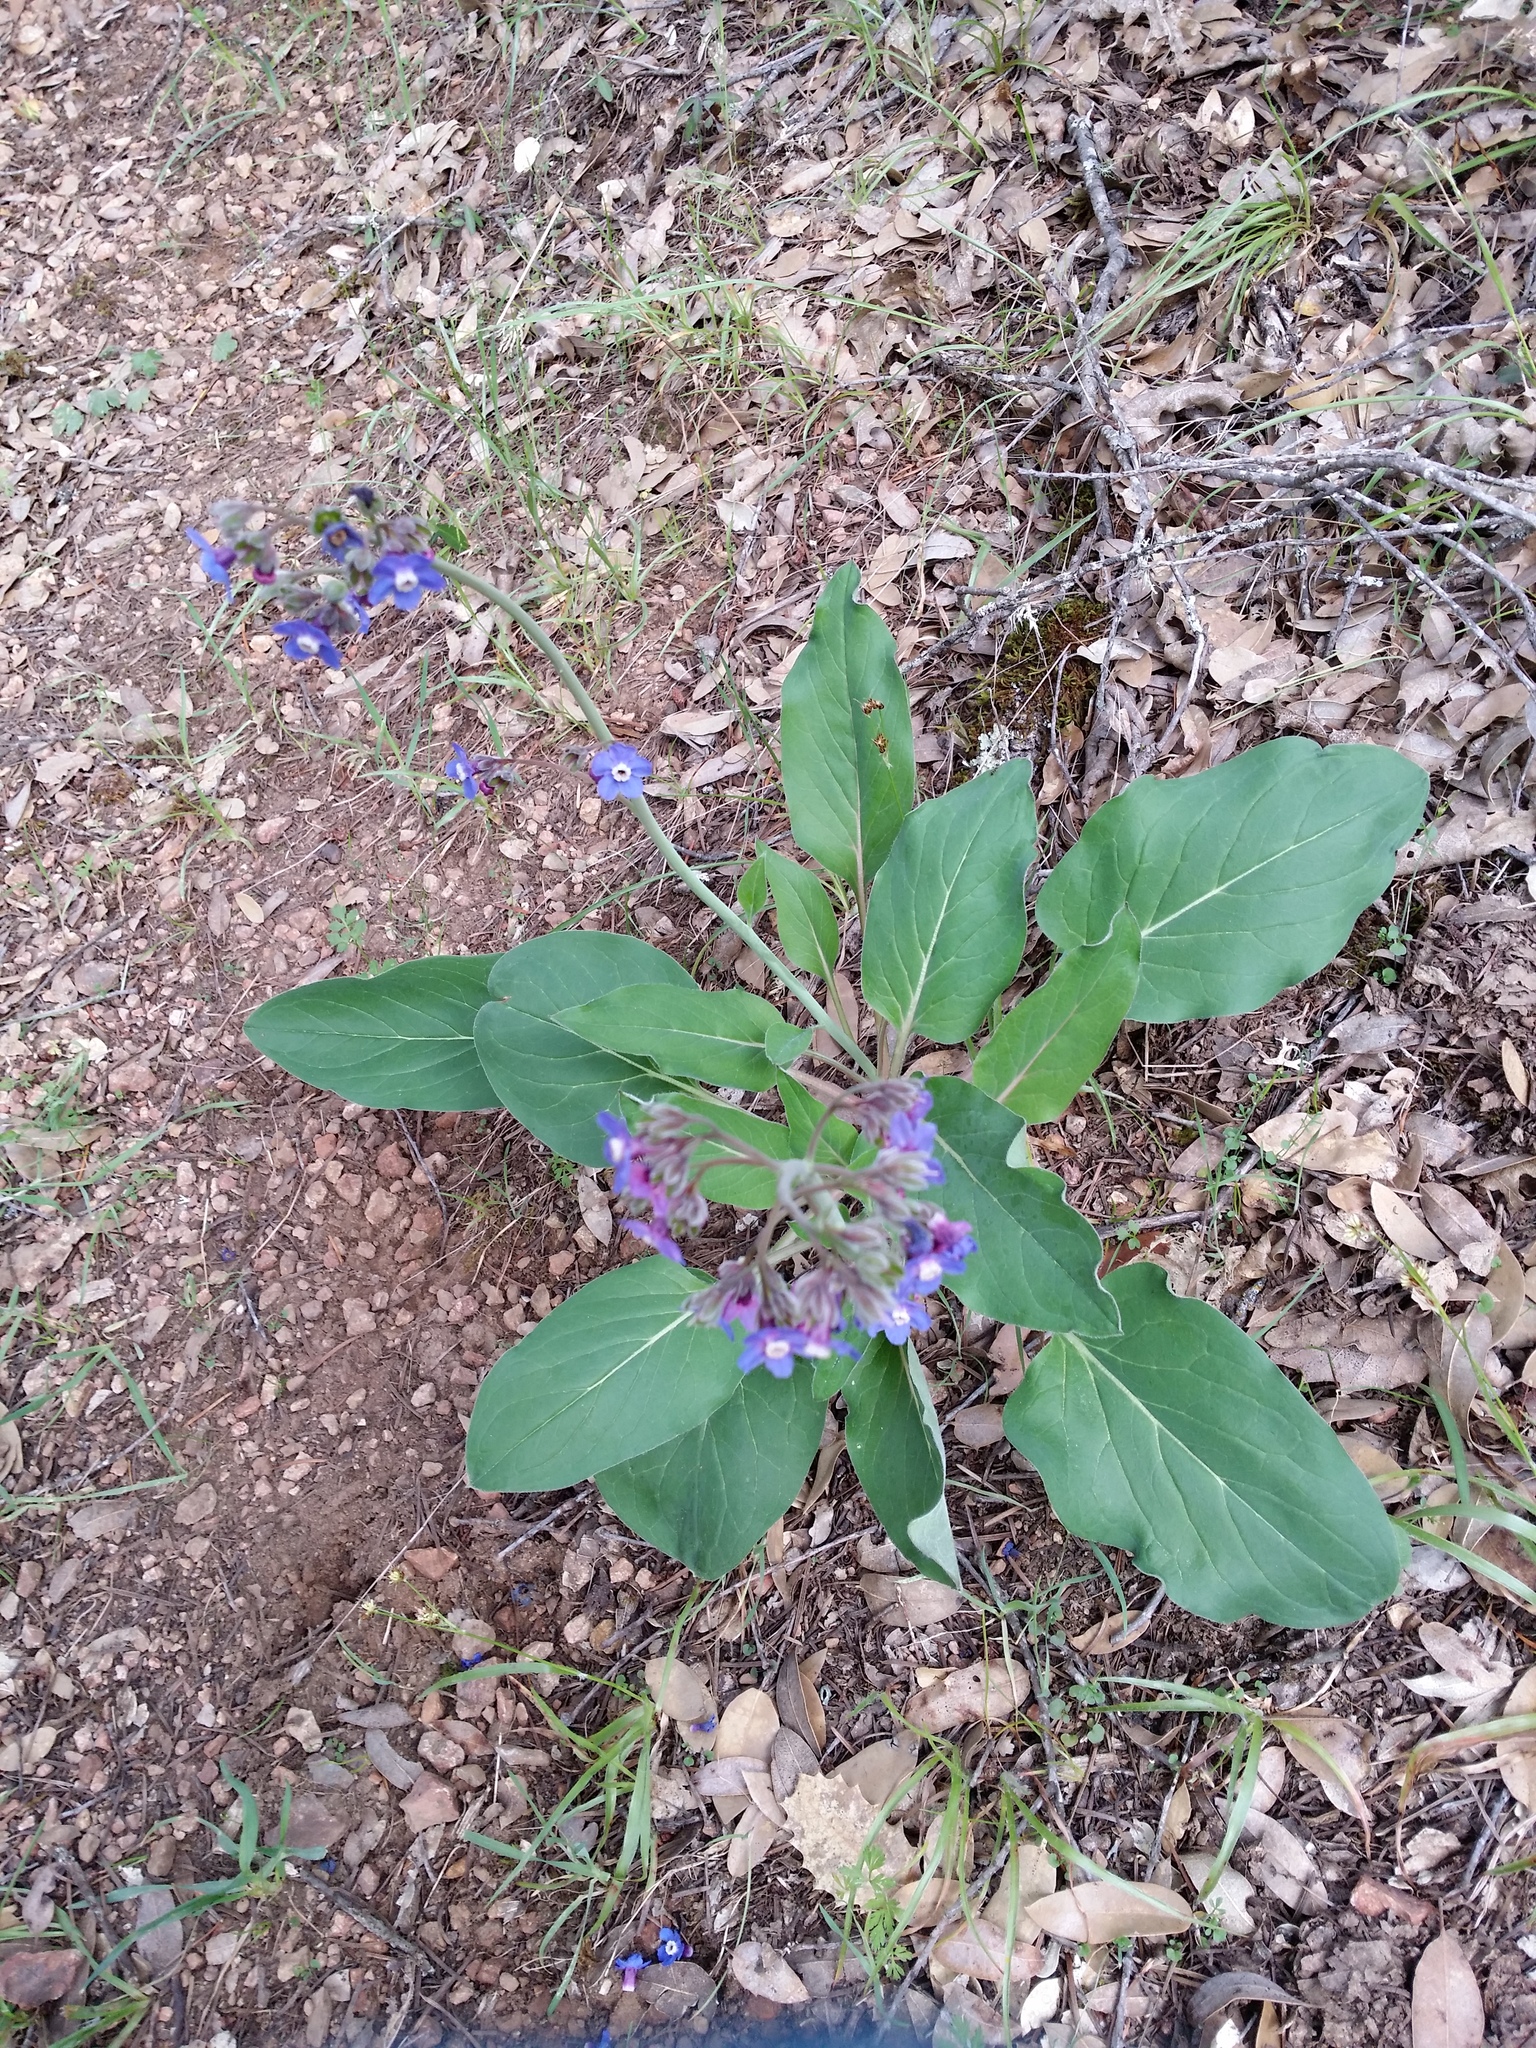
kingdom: Plantae
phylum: Tracheophyta
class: Magnoliopsida
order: Boraginales
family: Boraginaceae
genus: Adelinia
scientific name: Adelinia grande
